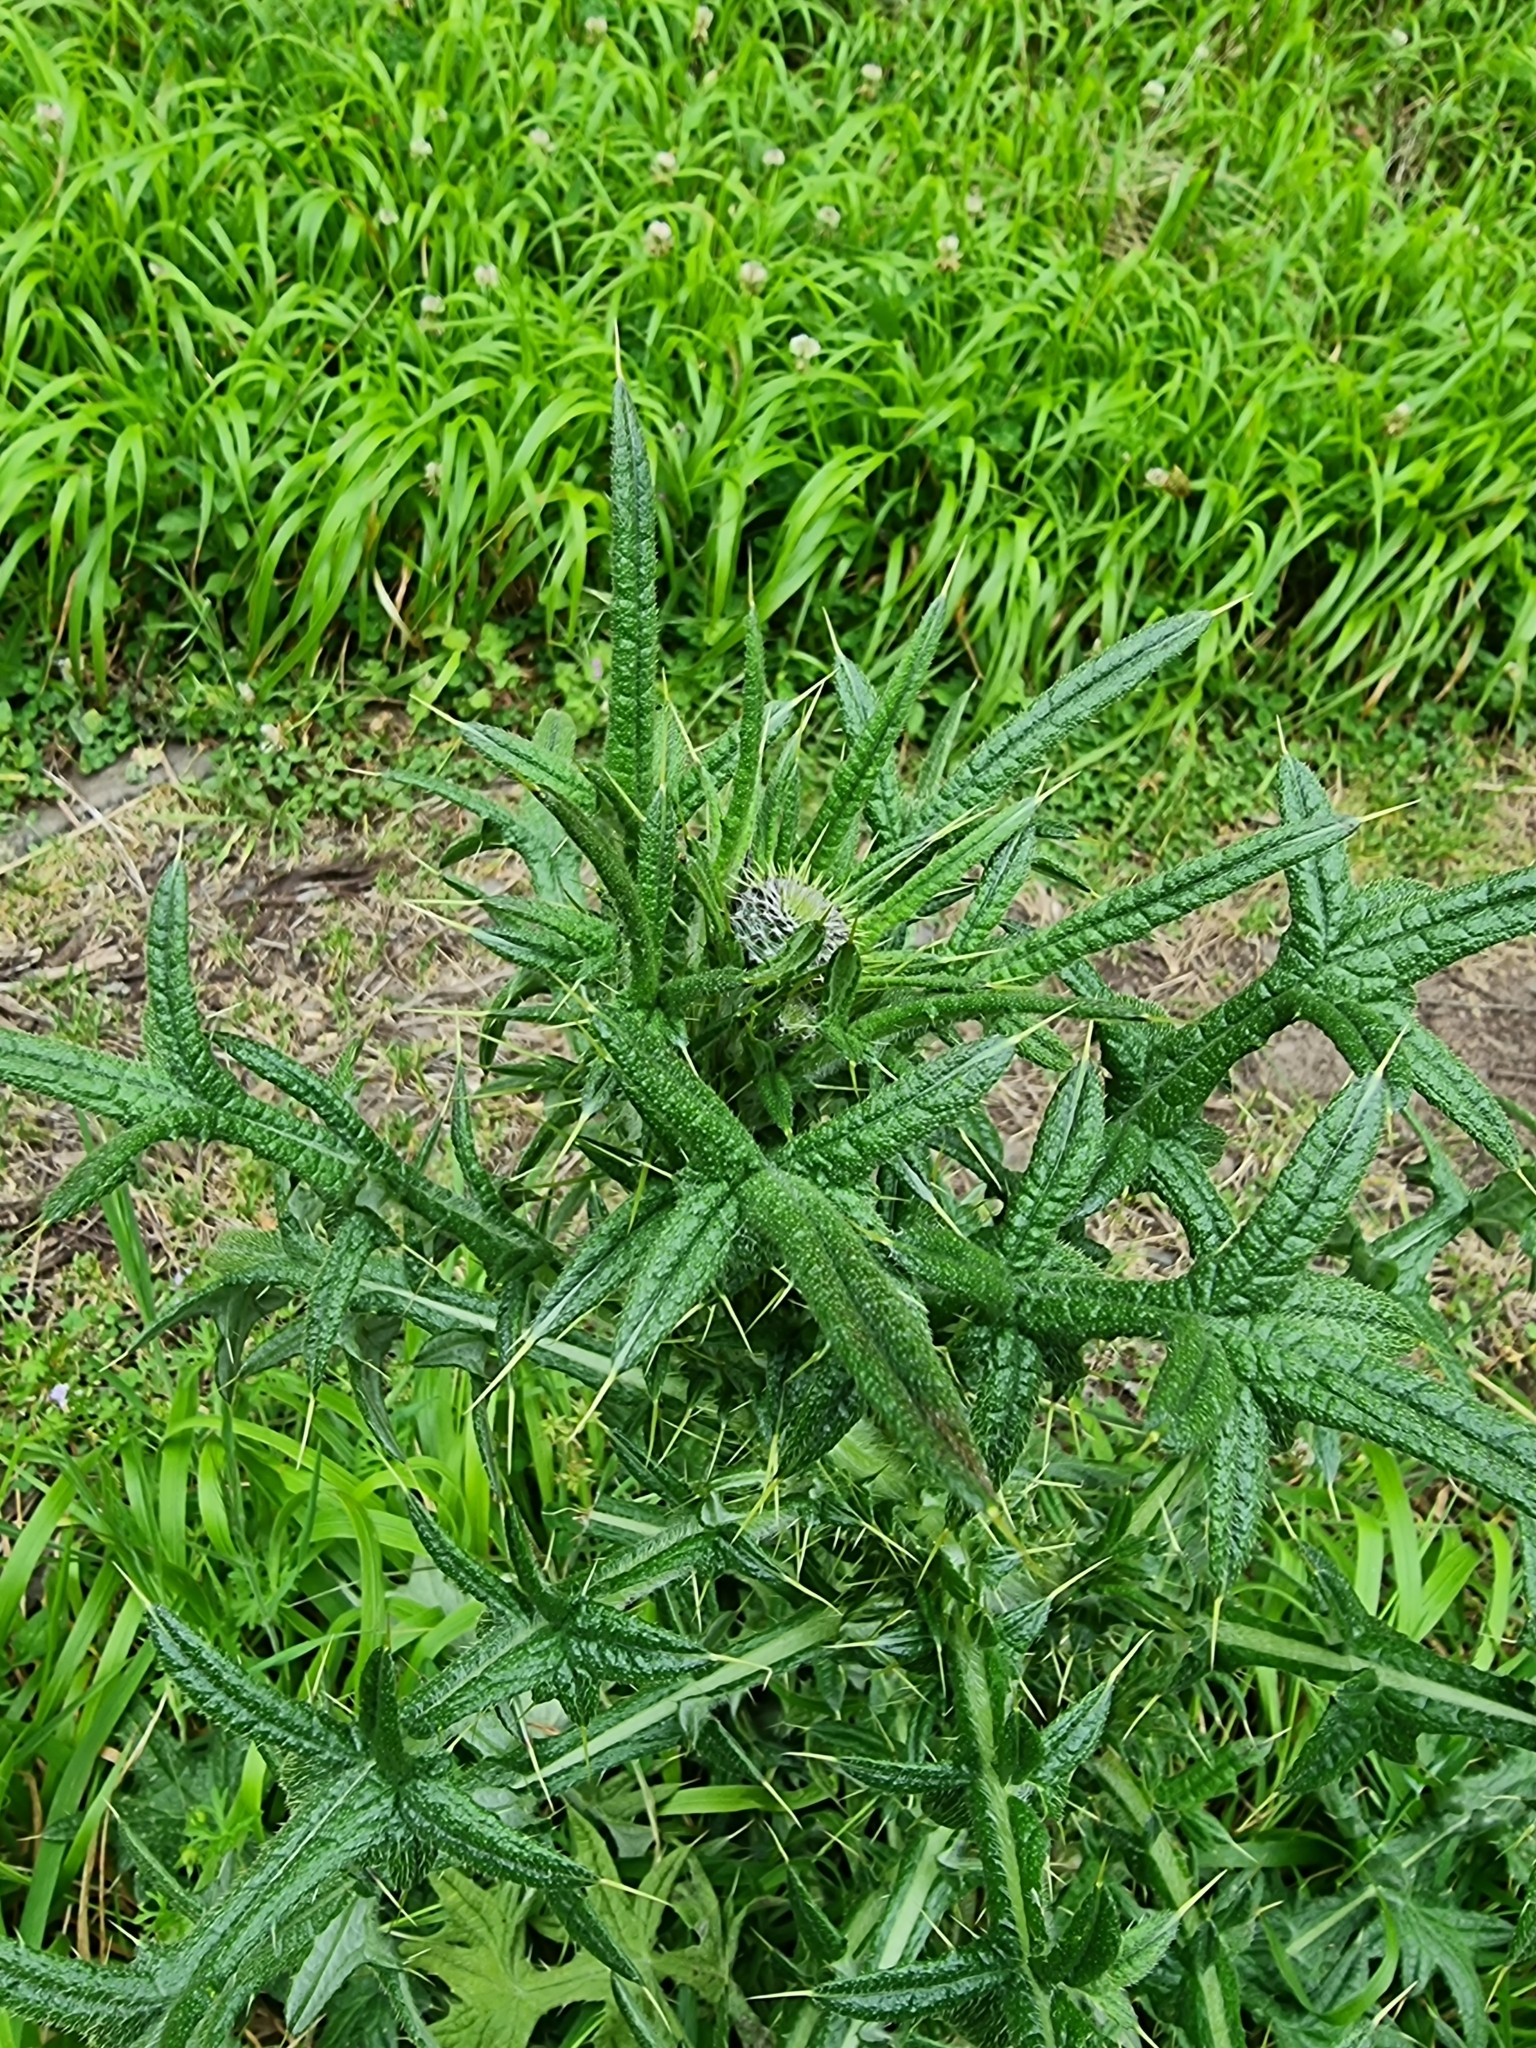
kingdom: Plantae
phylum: Tracheophyta
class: Magnoliopsida
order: Asterales
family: Asteraceae
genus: Cirsium
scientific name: Cirsium vulgare
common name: Bull thistle
